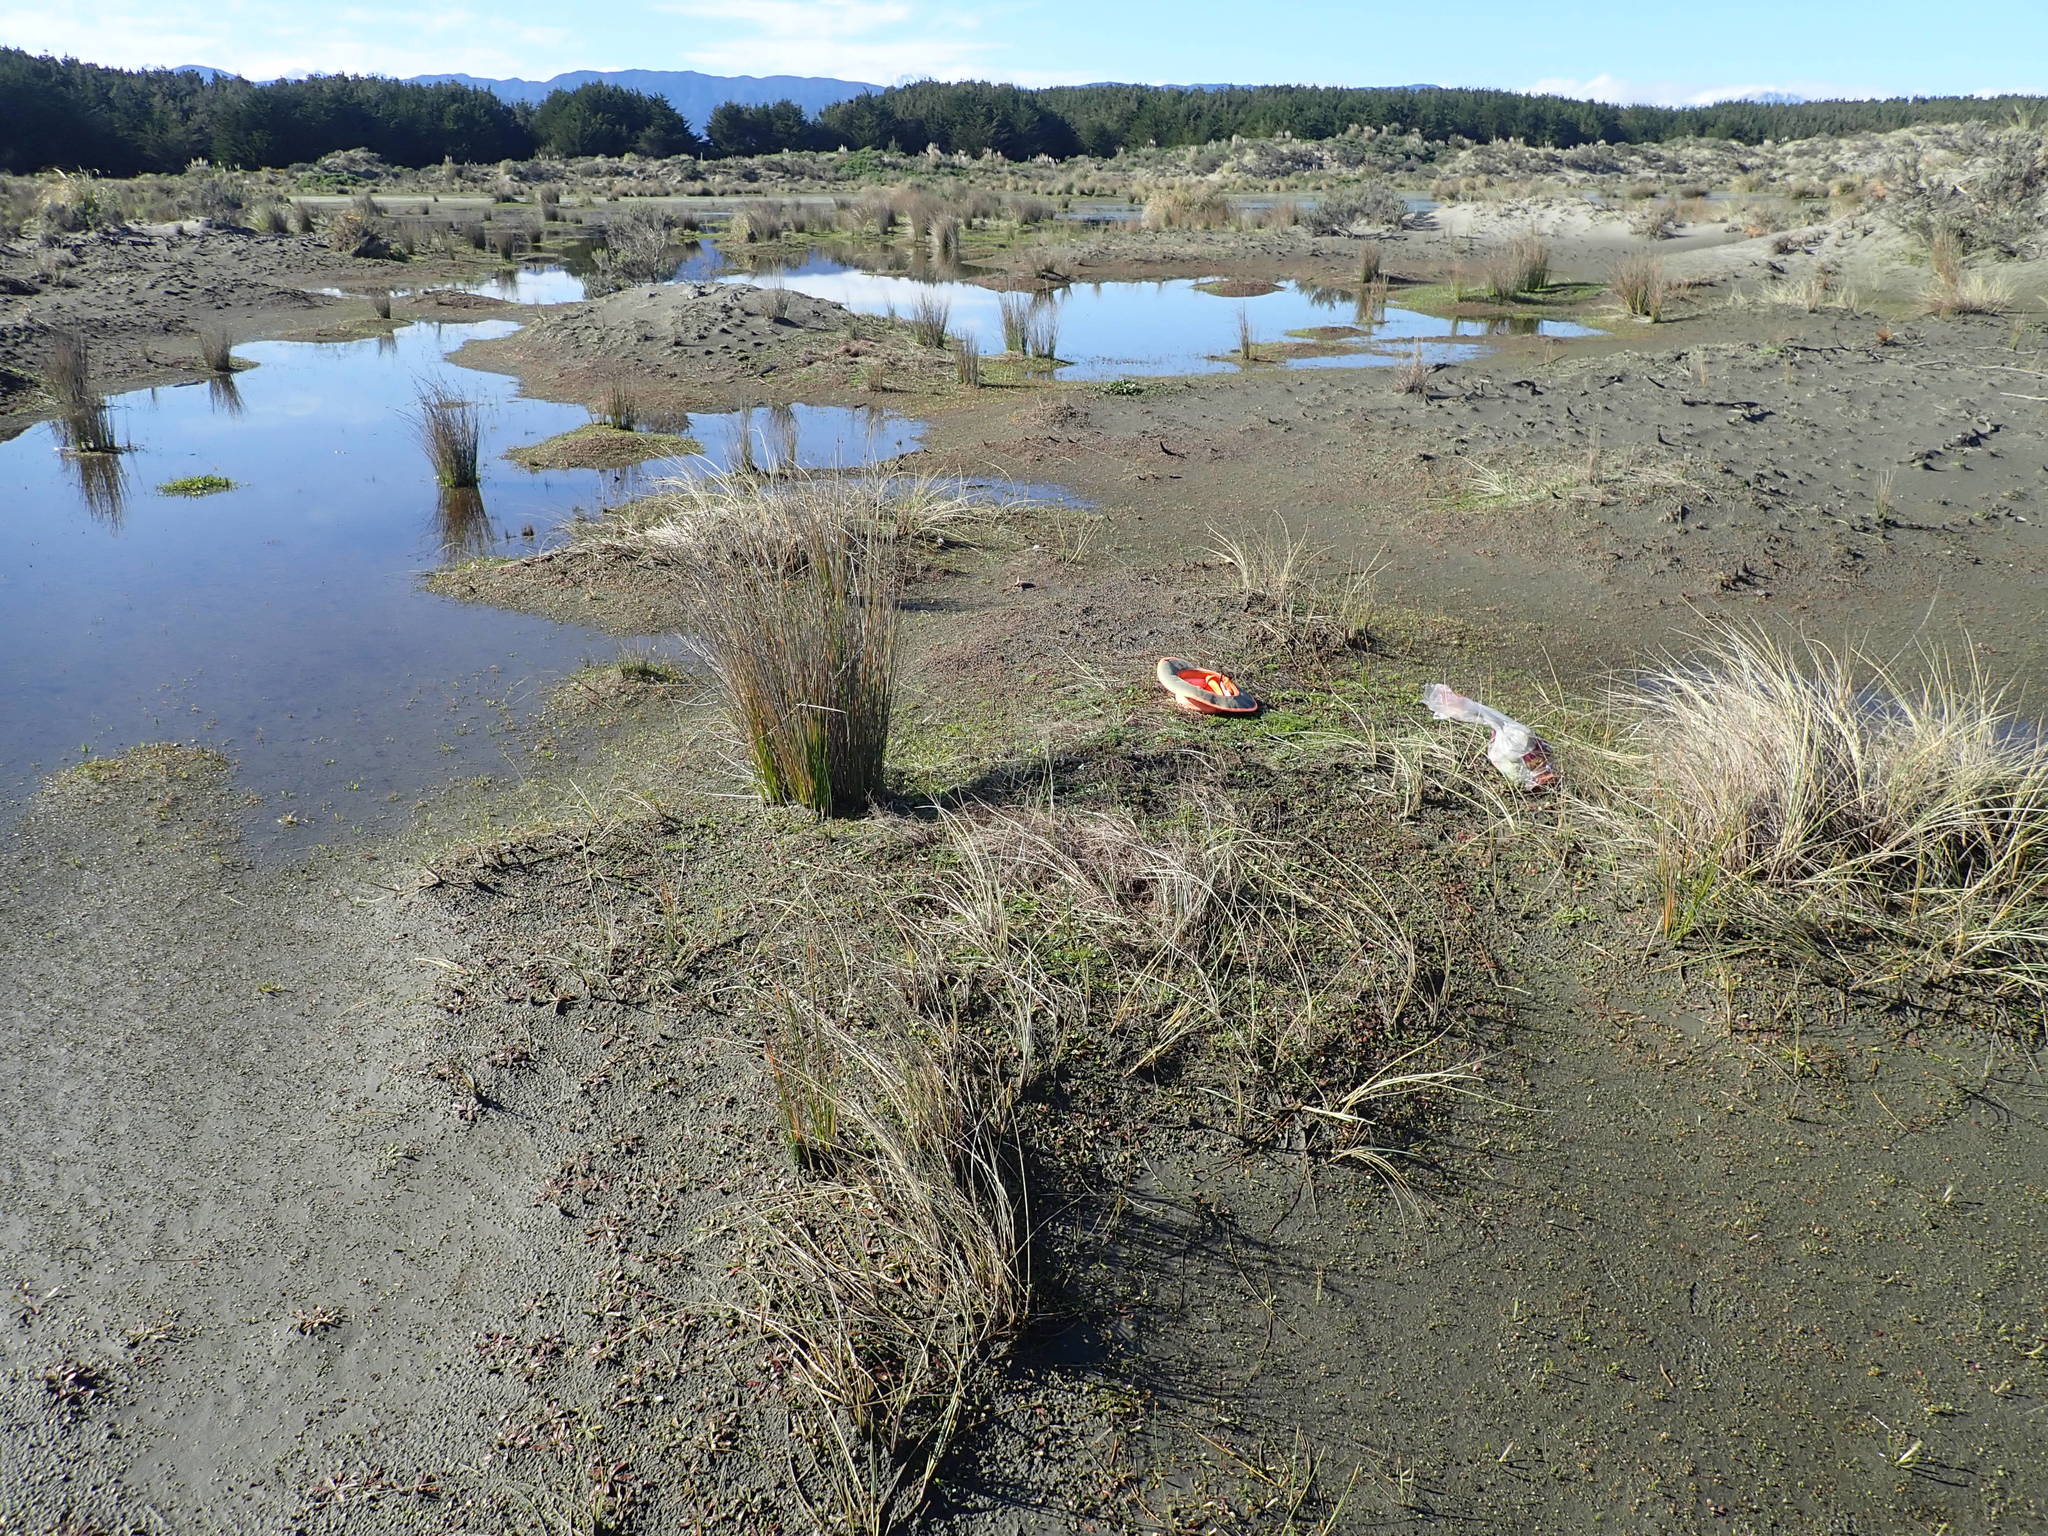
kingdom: Plantae
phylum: Tracheophyta
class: Magnoliopsida
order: Caryophyllales
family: Caryophyllaceae
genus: Sagina
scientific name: Sagina procumbens
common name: Procumbent pearlwort
